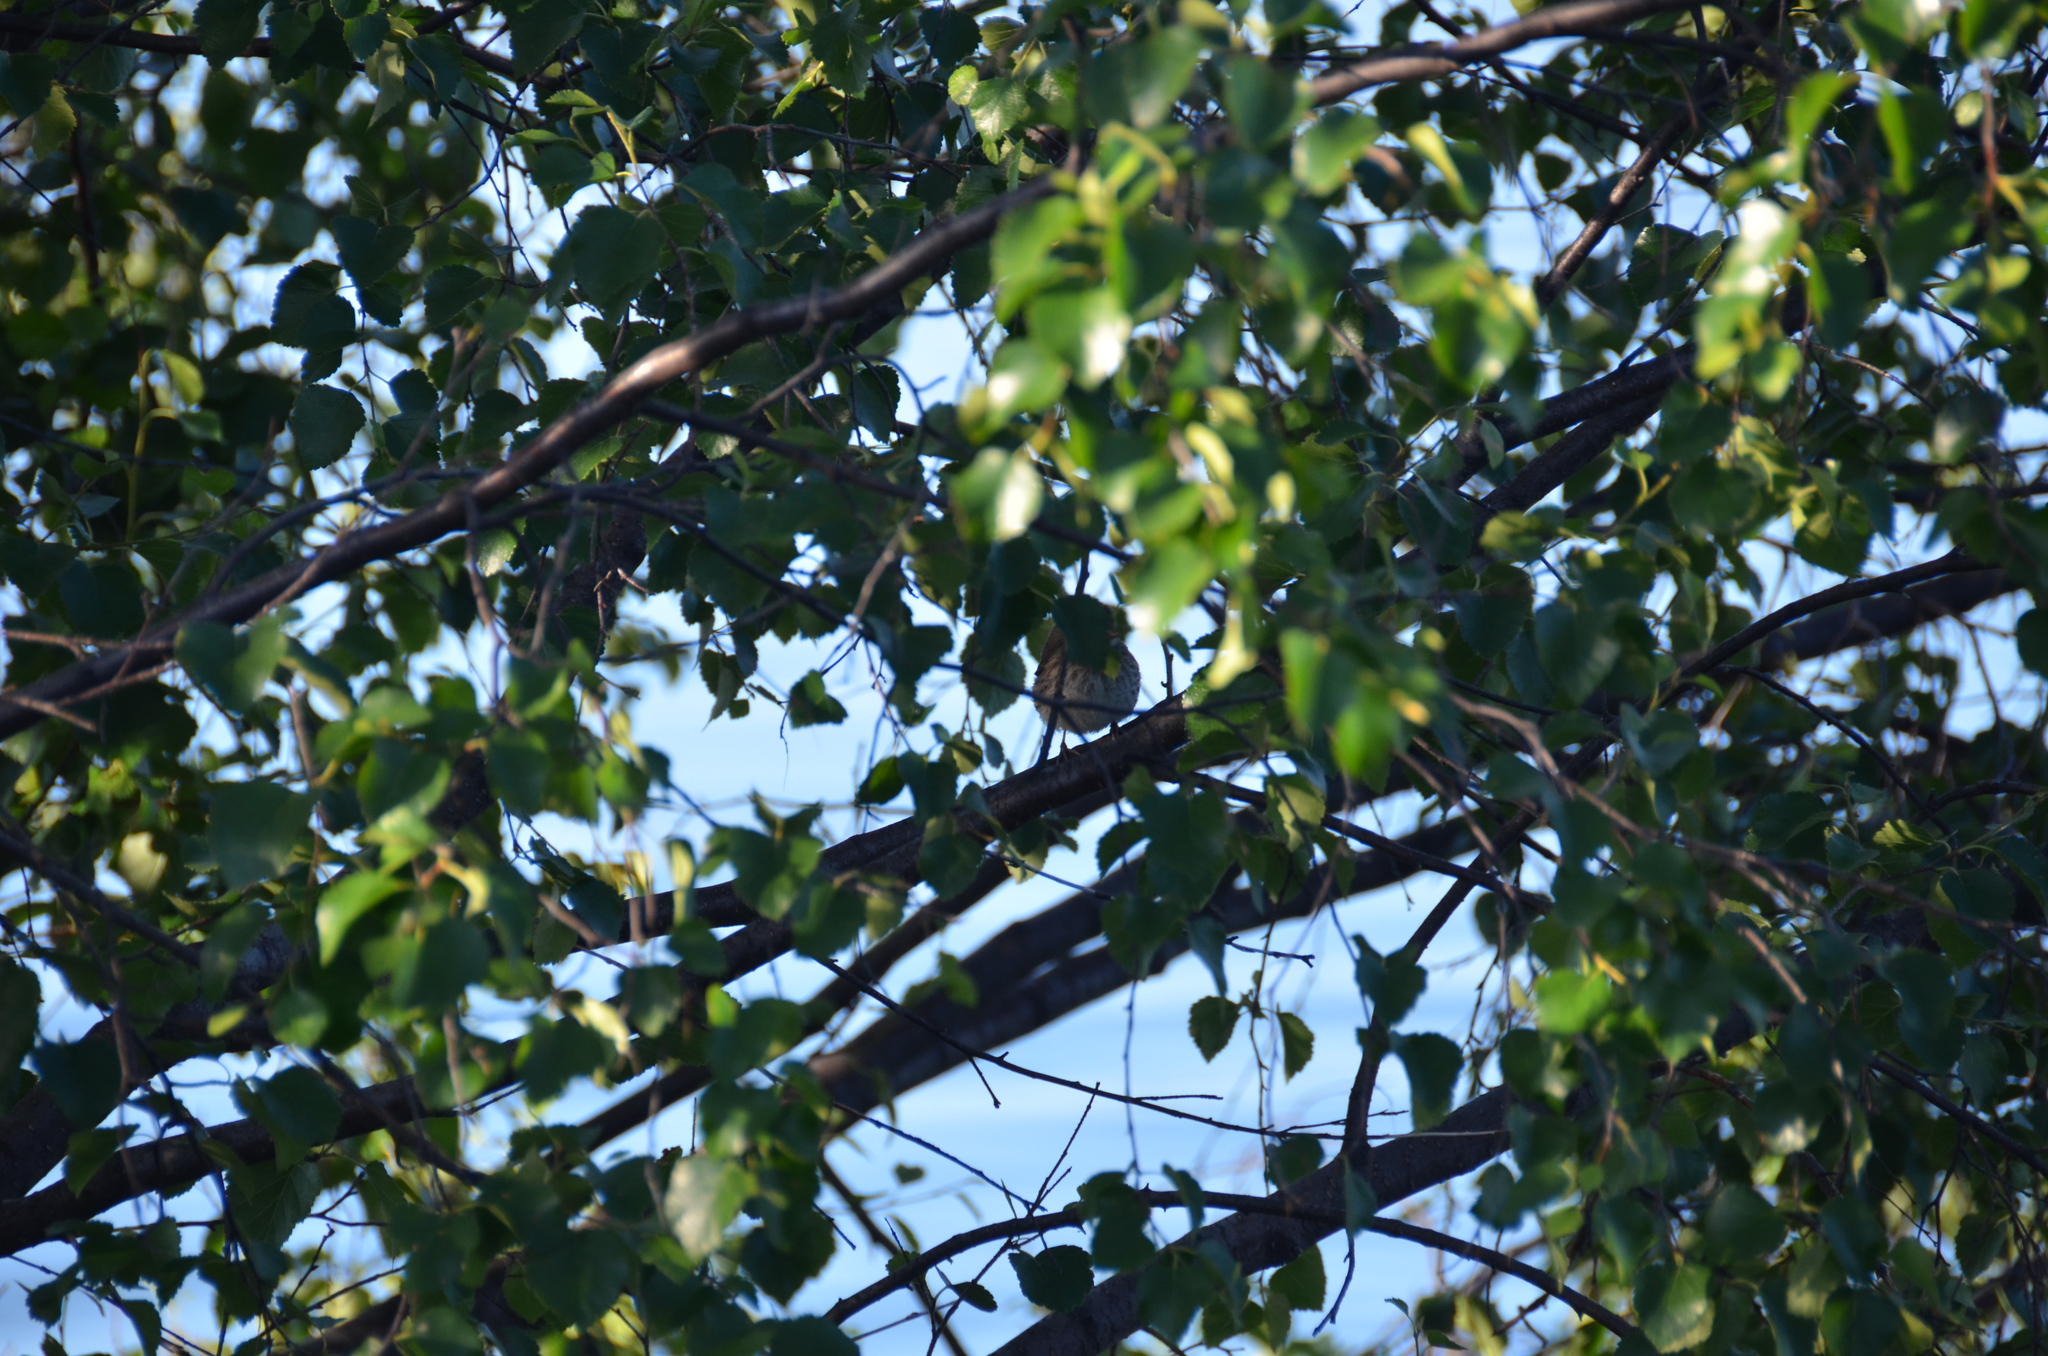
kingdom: Animalia
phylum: Chordata
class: Aves
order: Passeriformes
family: Passerellidae
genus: Junco
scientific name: Junco hyemalis
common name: Dark-eyed junco
